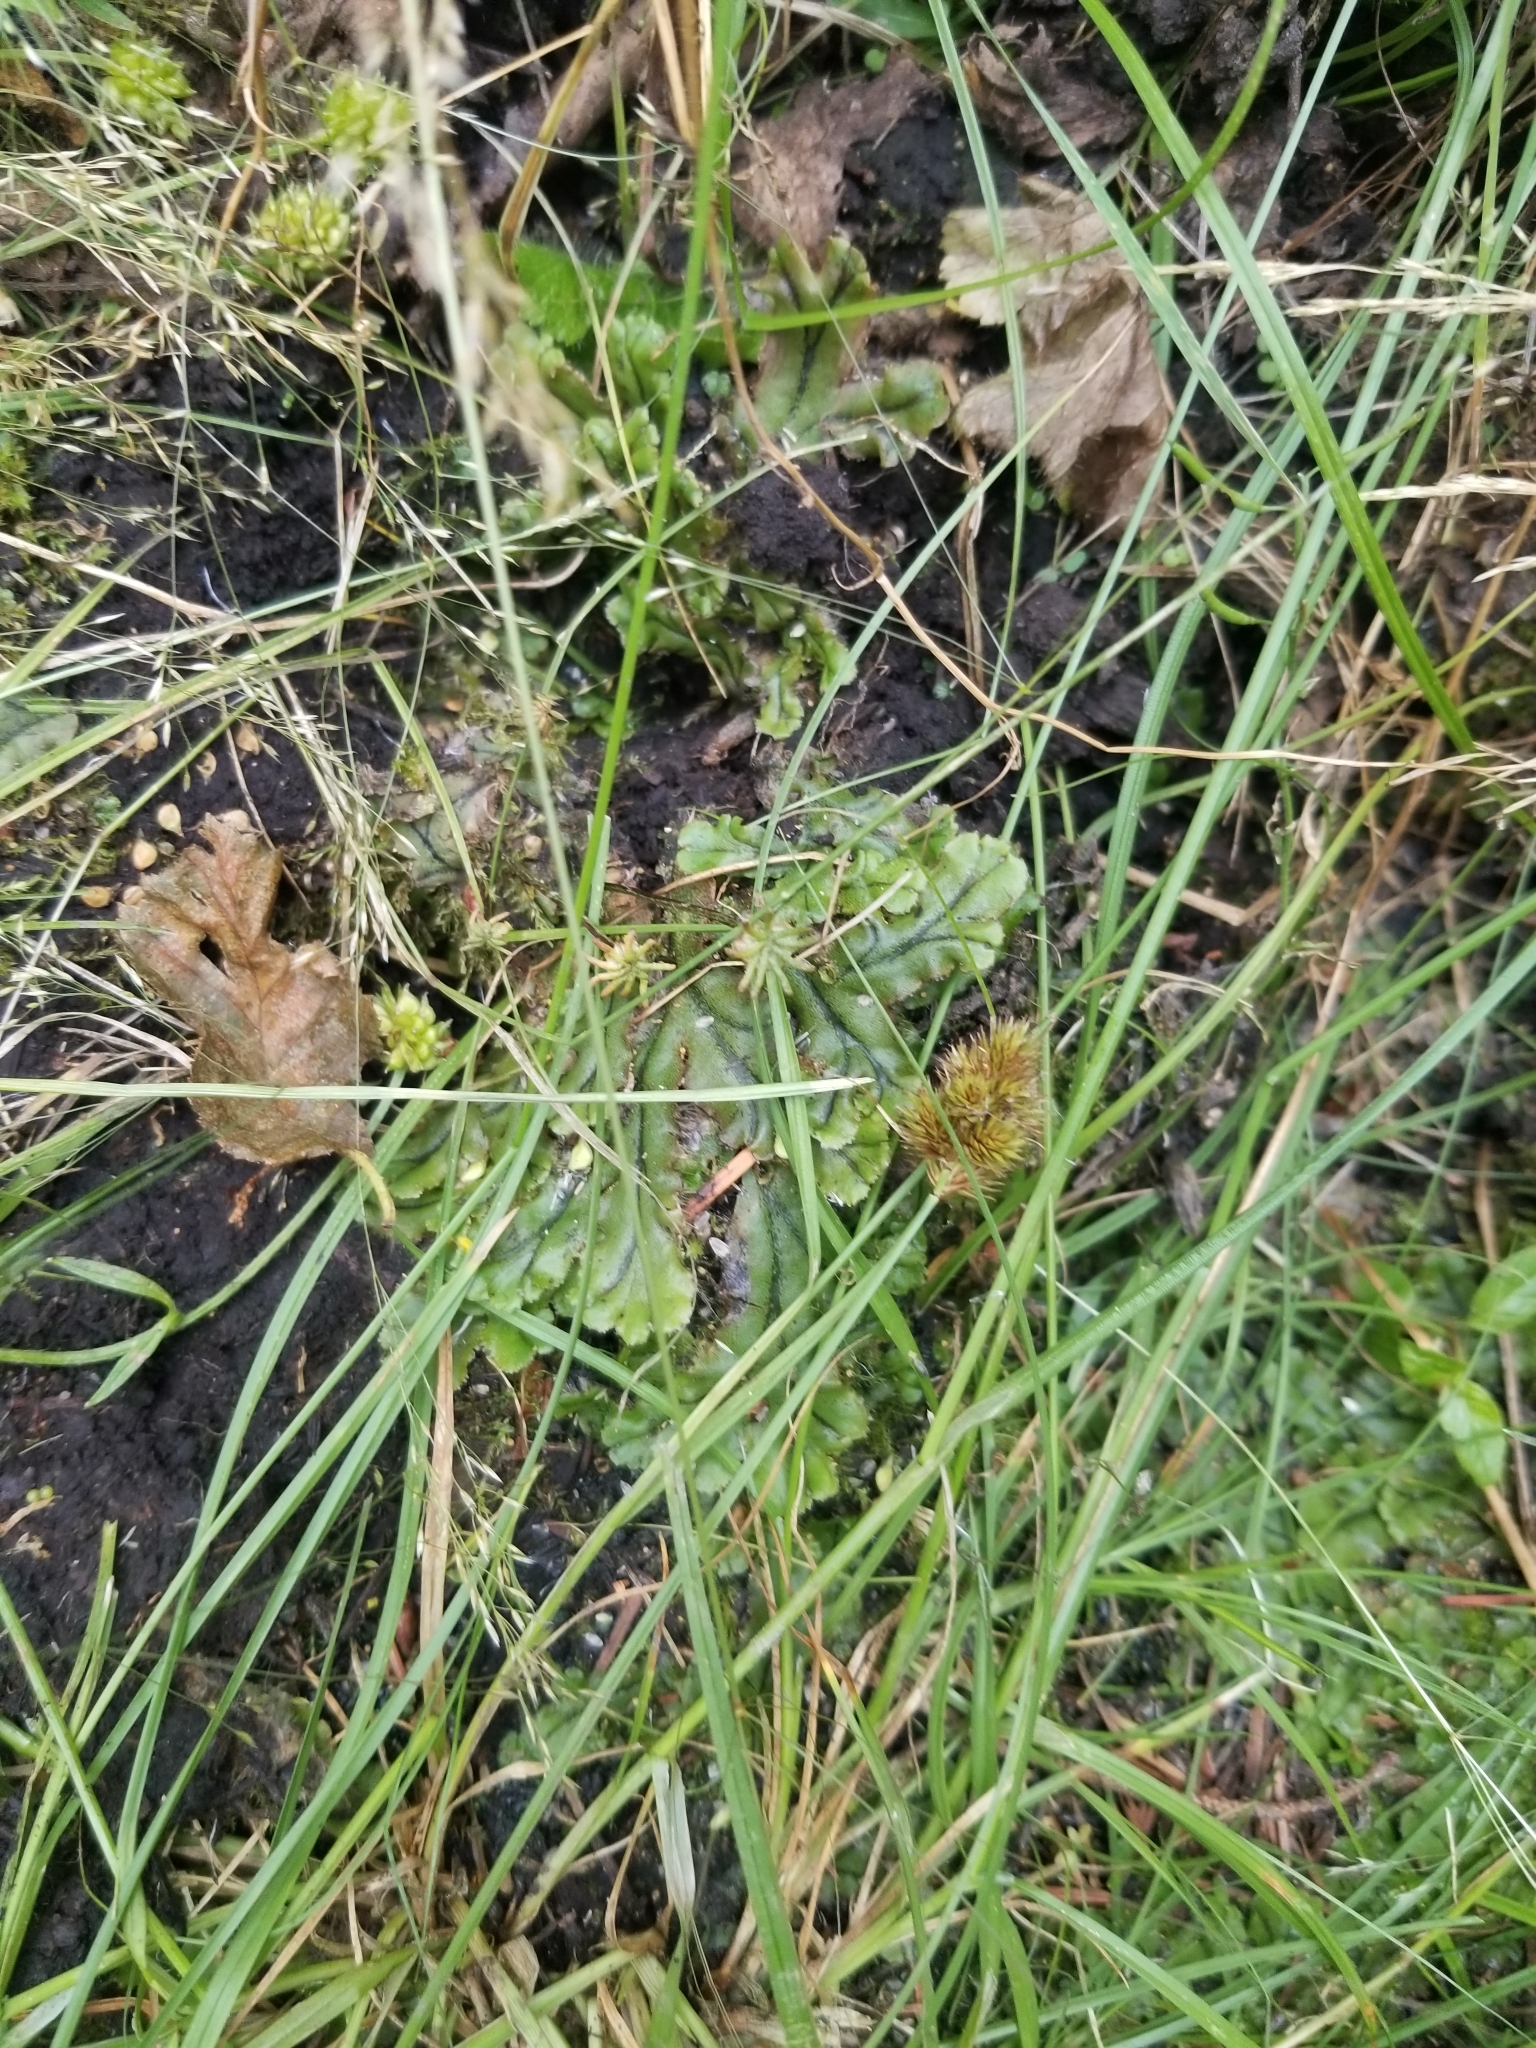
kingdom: Plantae
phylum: Marchantiophyta
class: Marchantiopsida
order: Marchantiales
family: Marchantiaceae
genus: Marchantia
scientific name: Marchantia polymorpha
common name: Common liverwort
